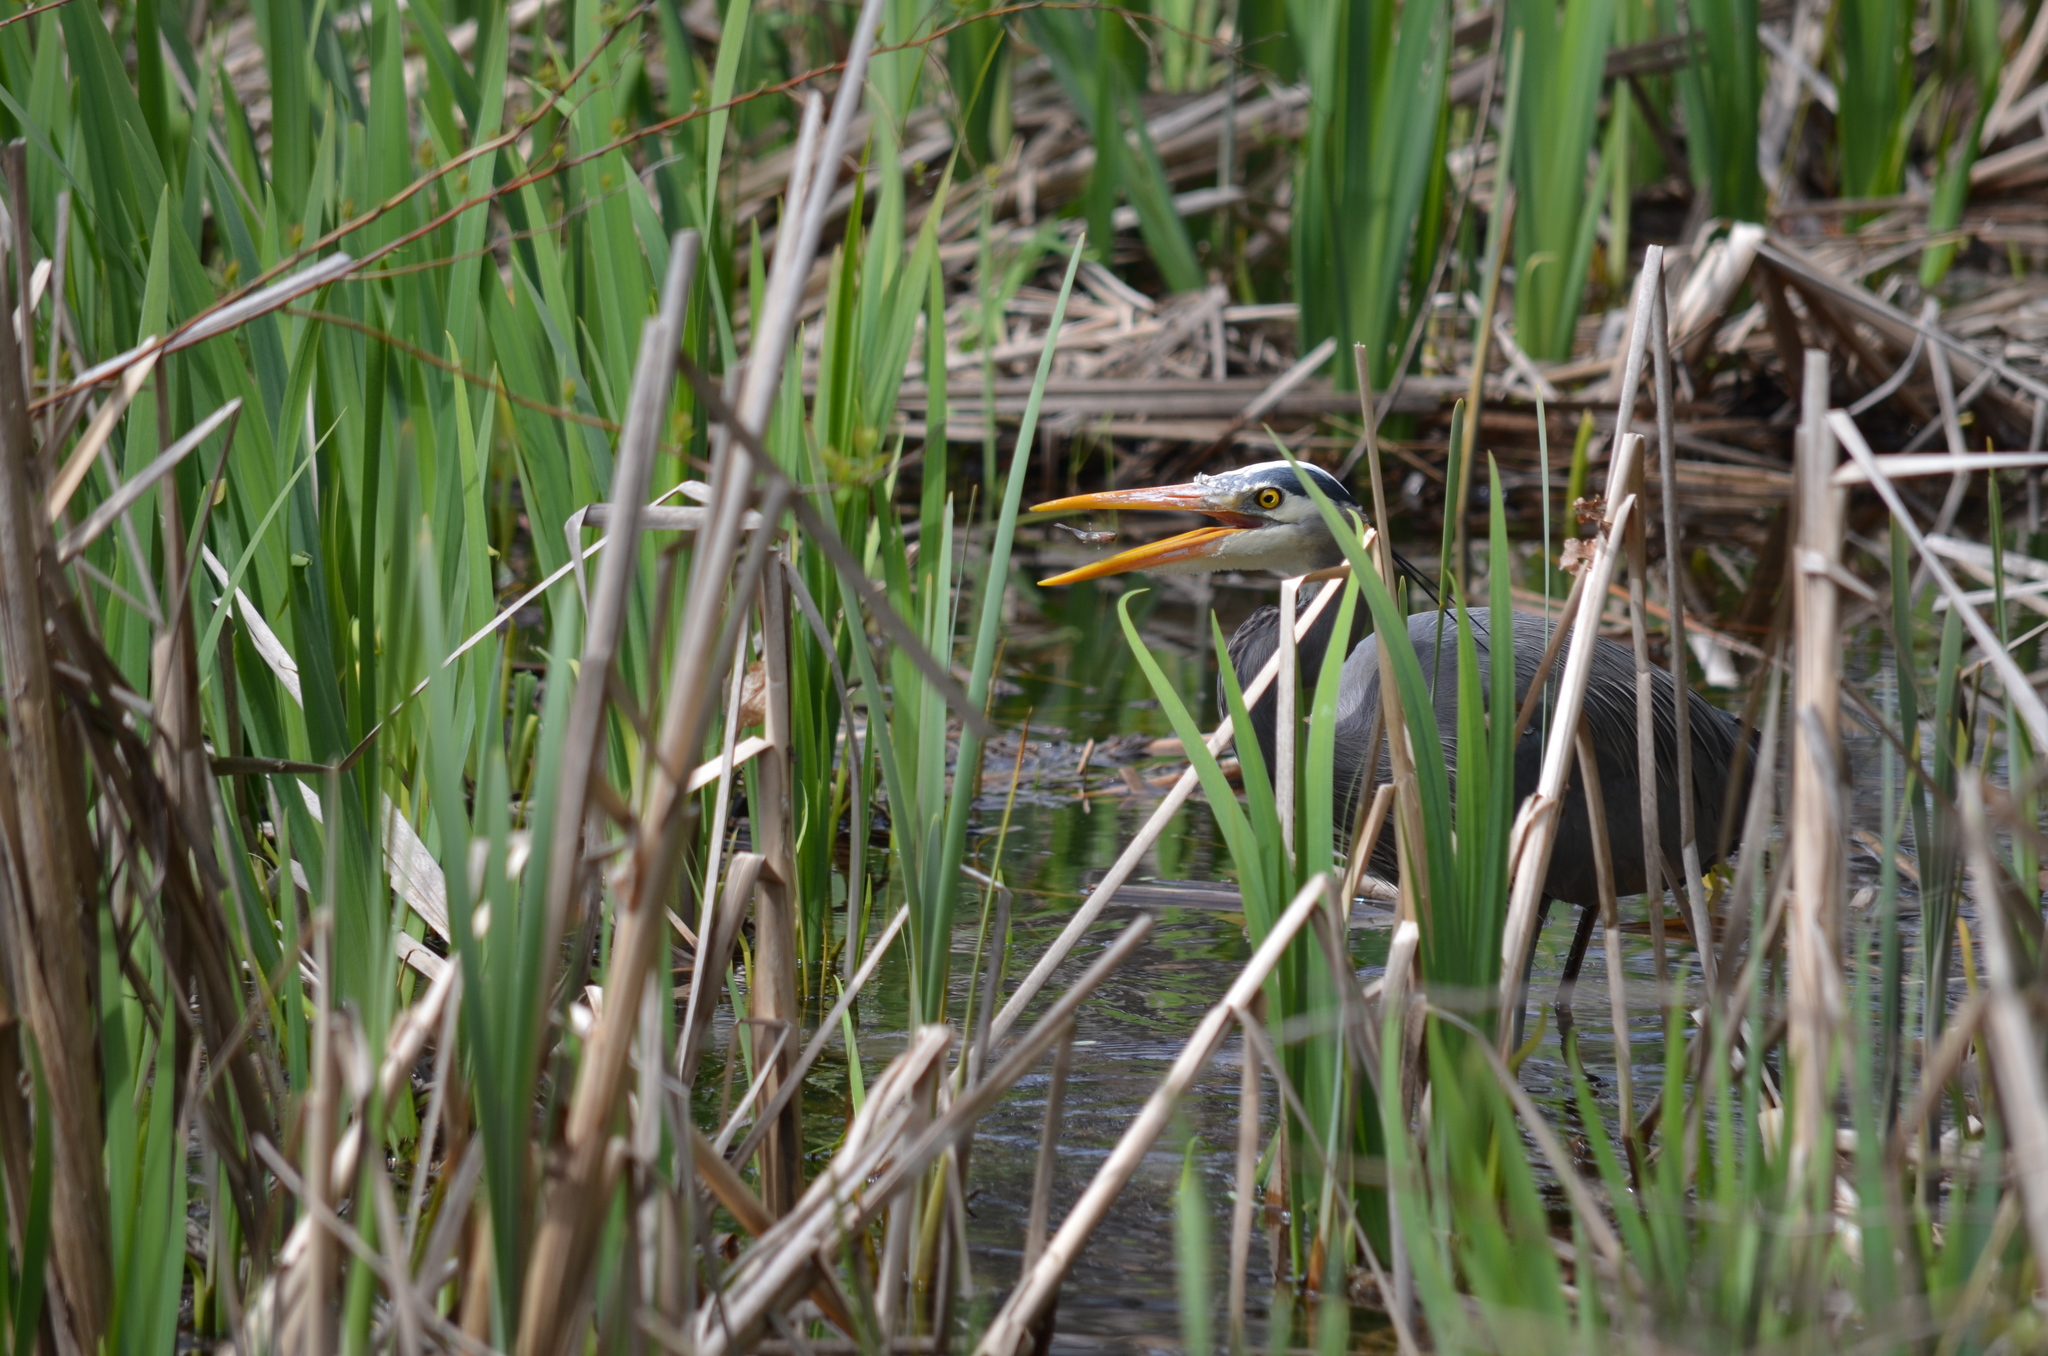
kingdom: Animalia
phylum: Chordata
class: Aves
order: Pelecaniformes
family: Ardeidae
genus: Ardea
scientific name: Ardea herodias
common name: Great blue heron
